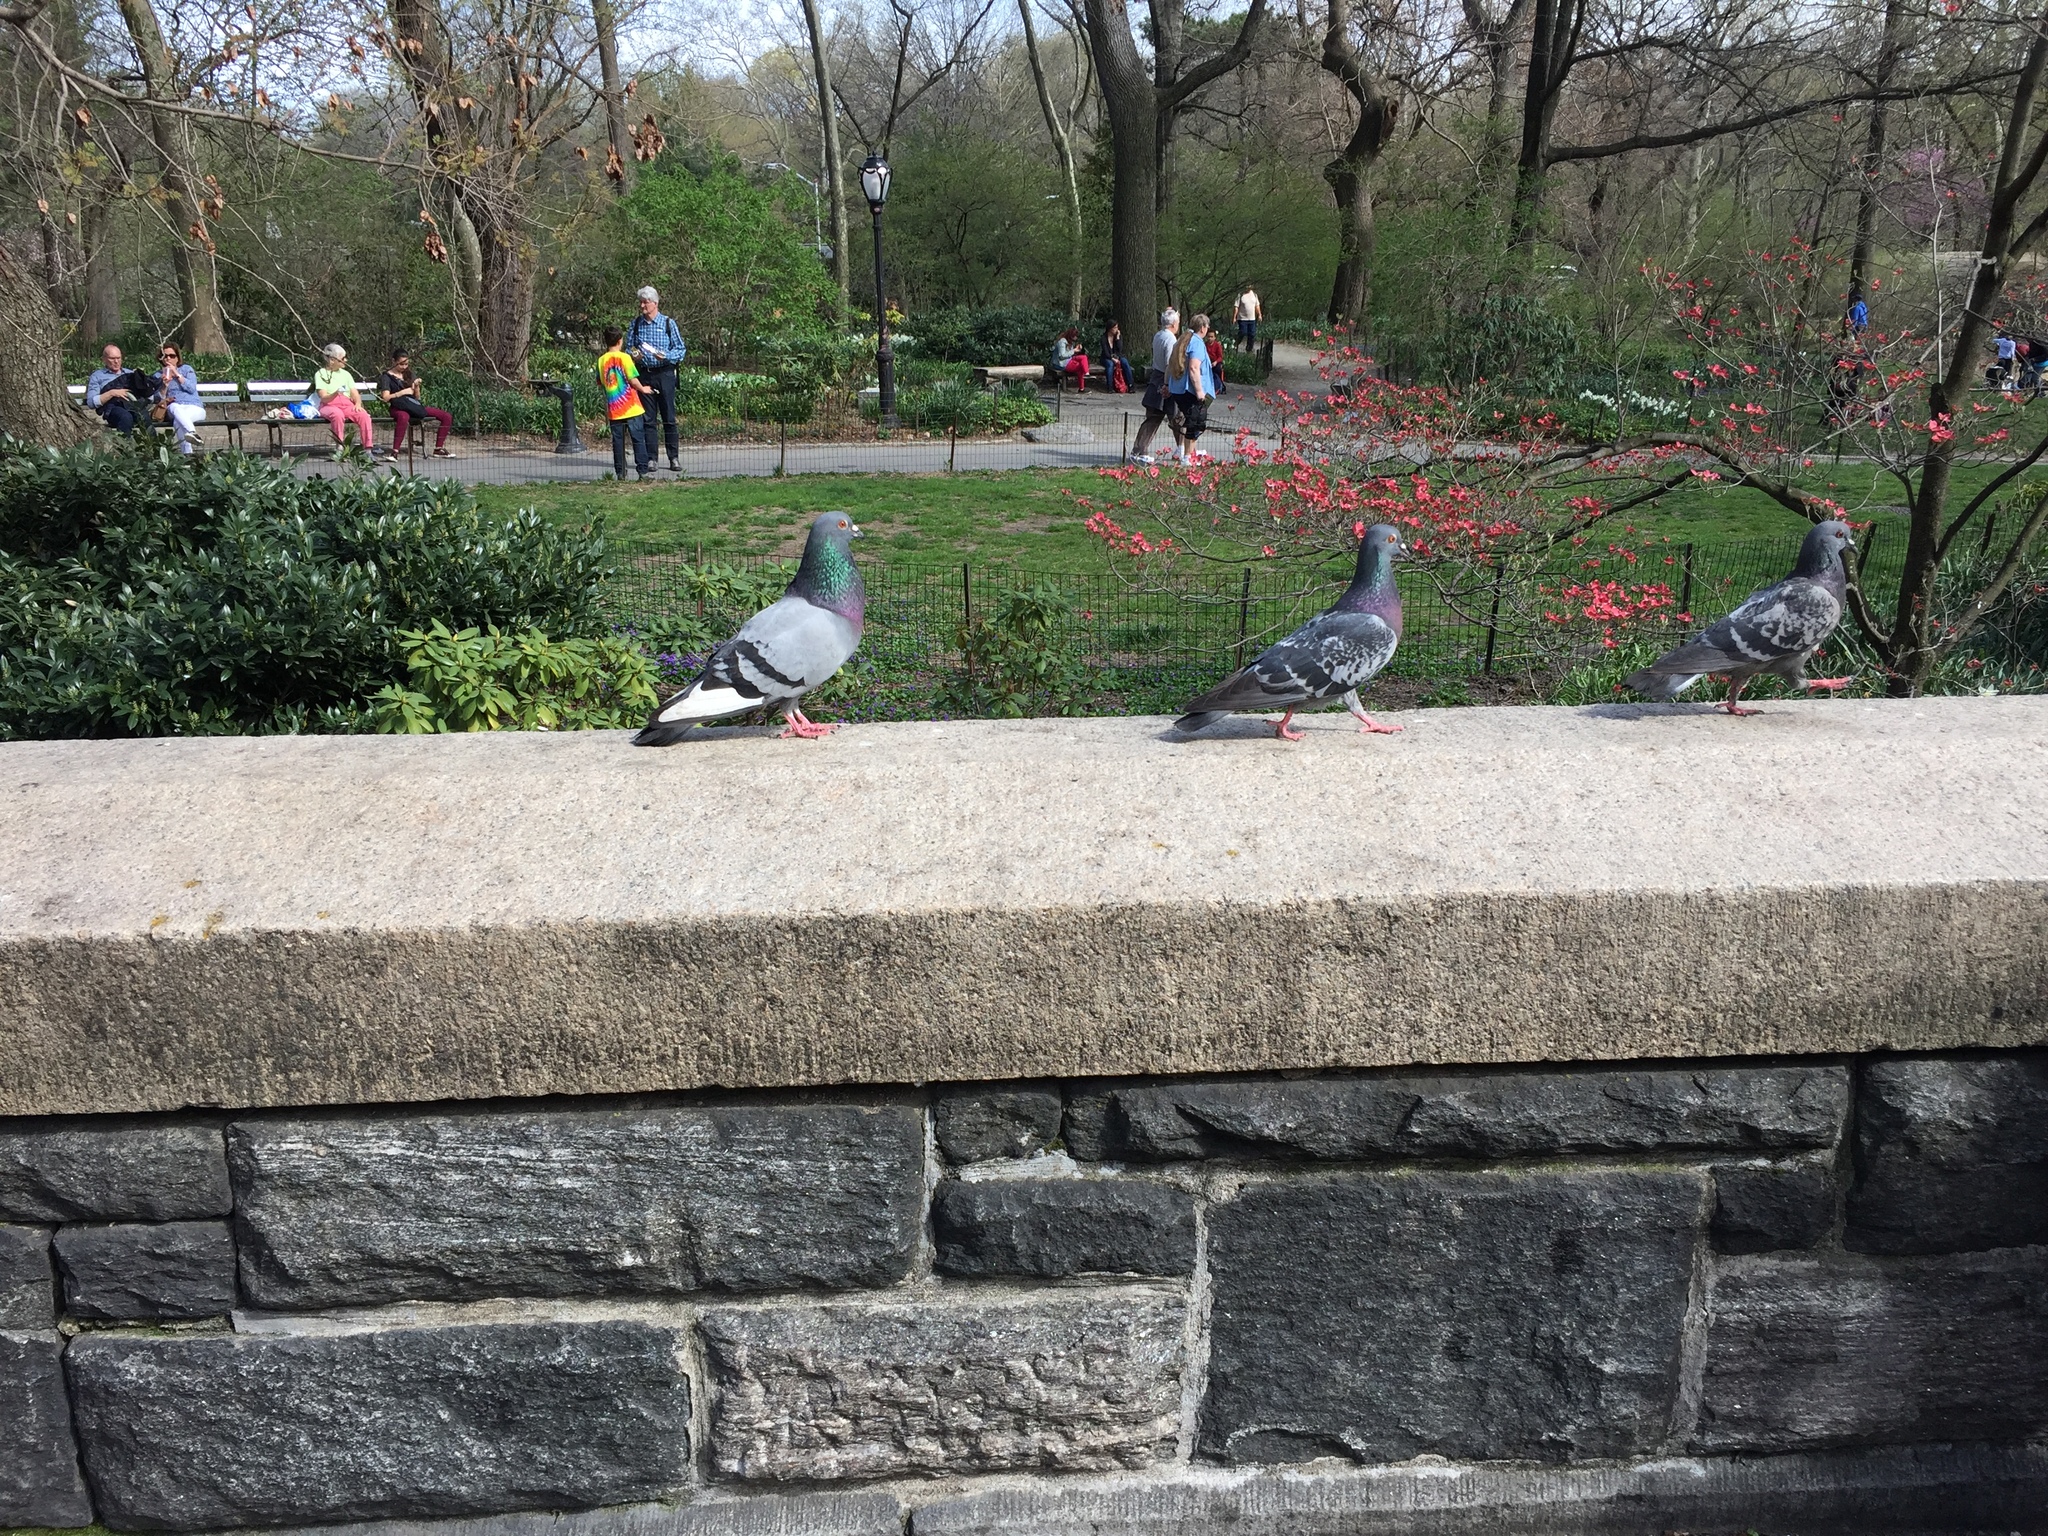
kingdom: Animalia
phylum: Chordata
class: Aves
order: Columbiformes
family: Columbidae
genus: Columba
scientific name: Columba livia
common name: Rock pigeon
